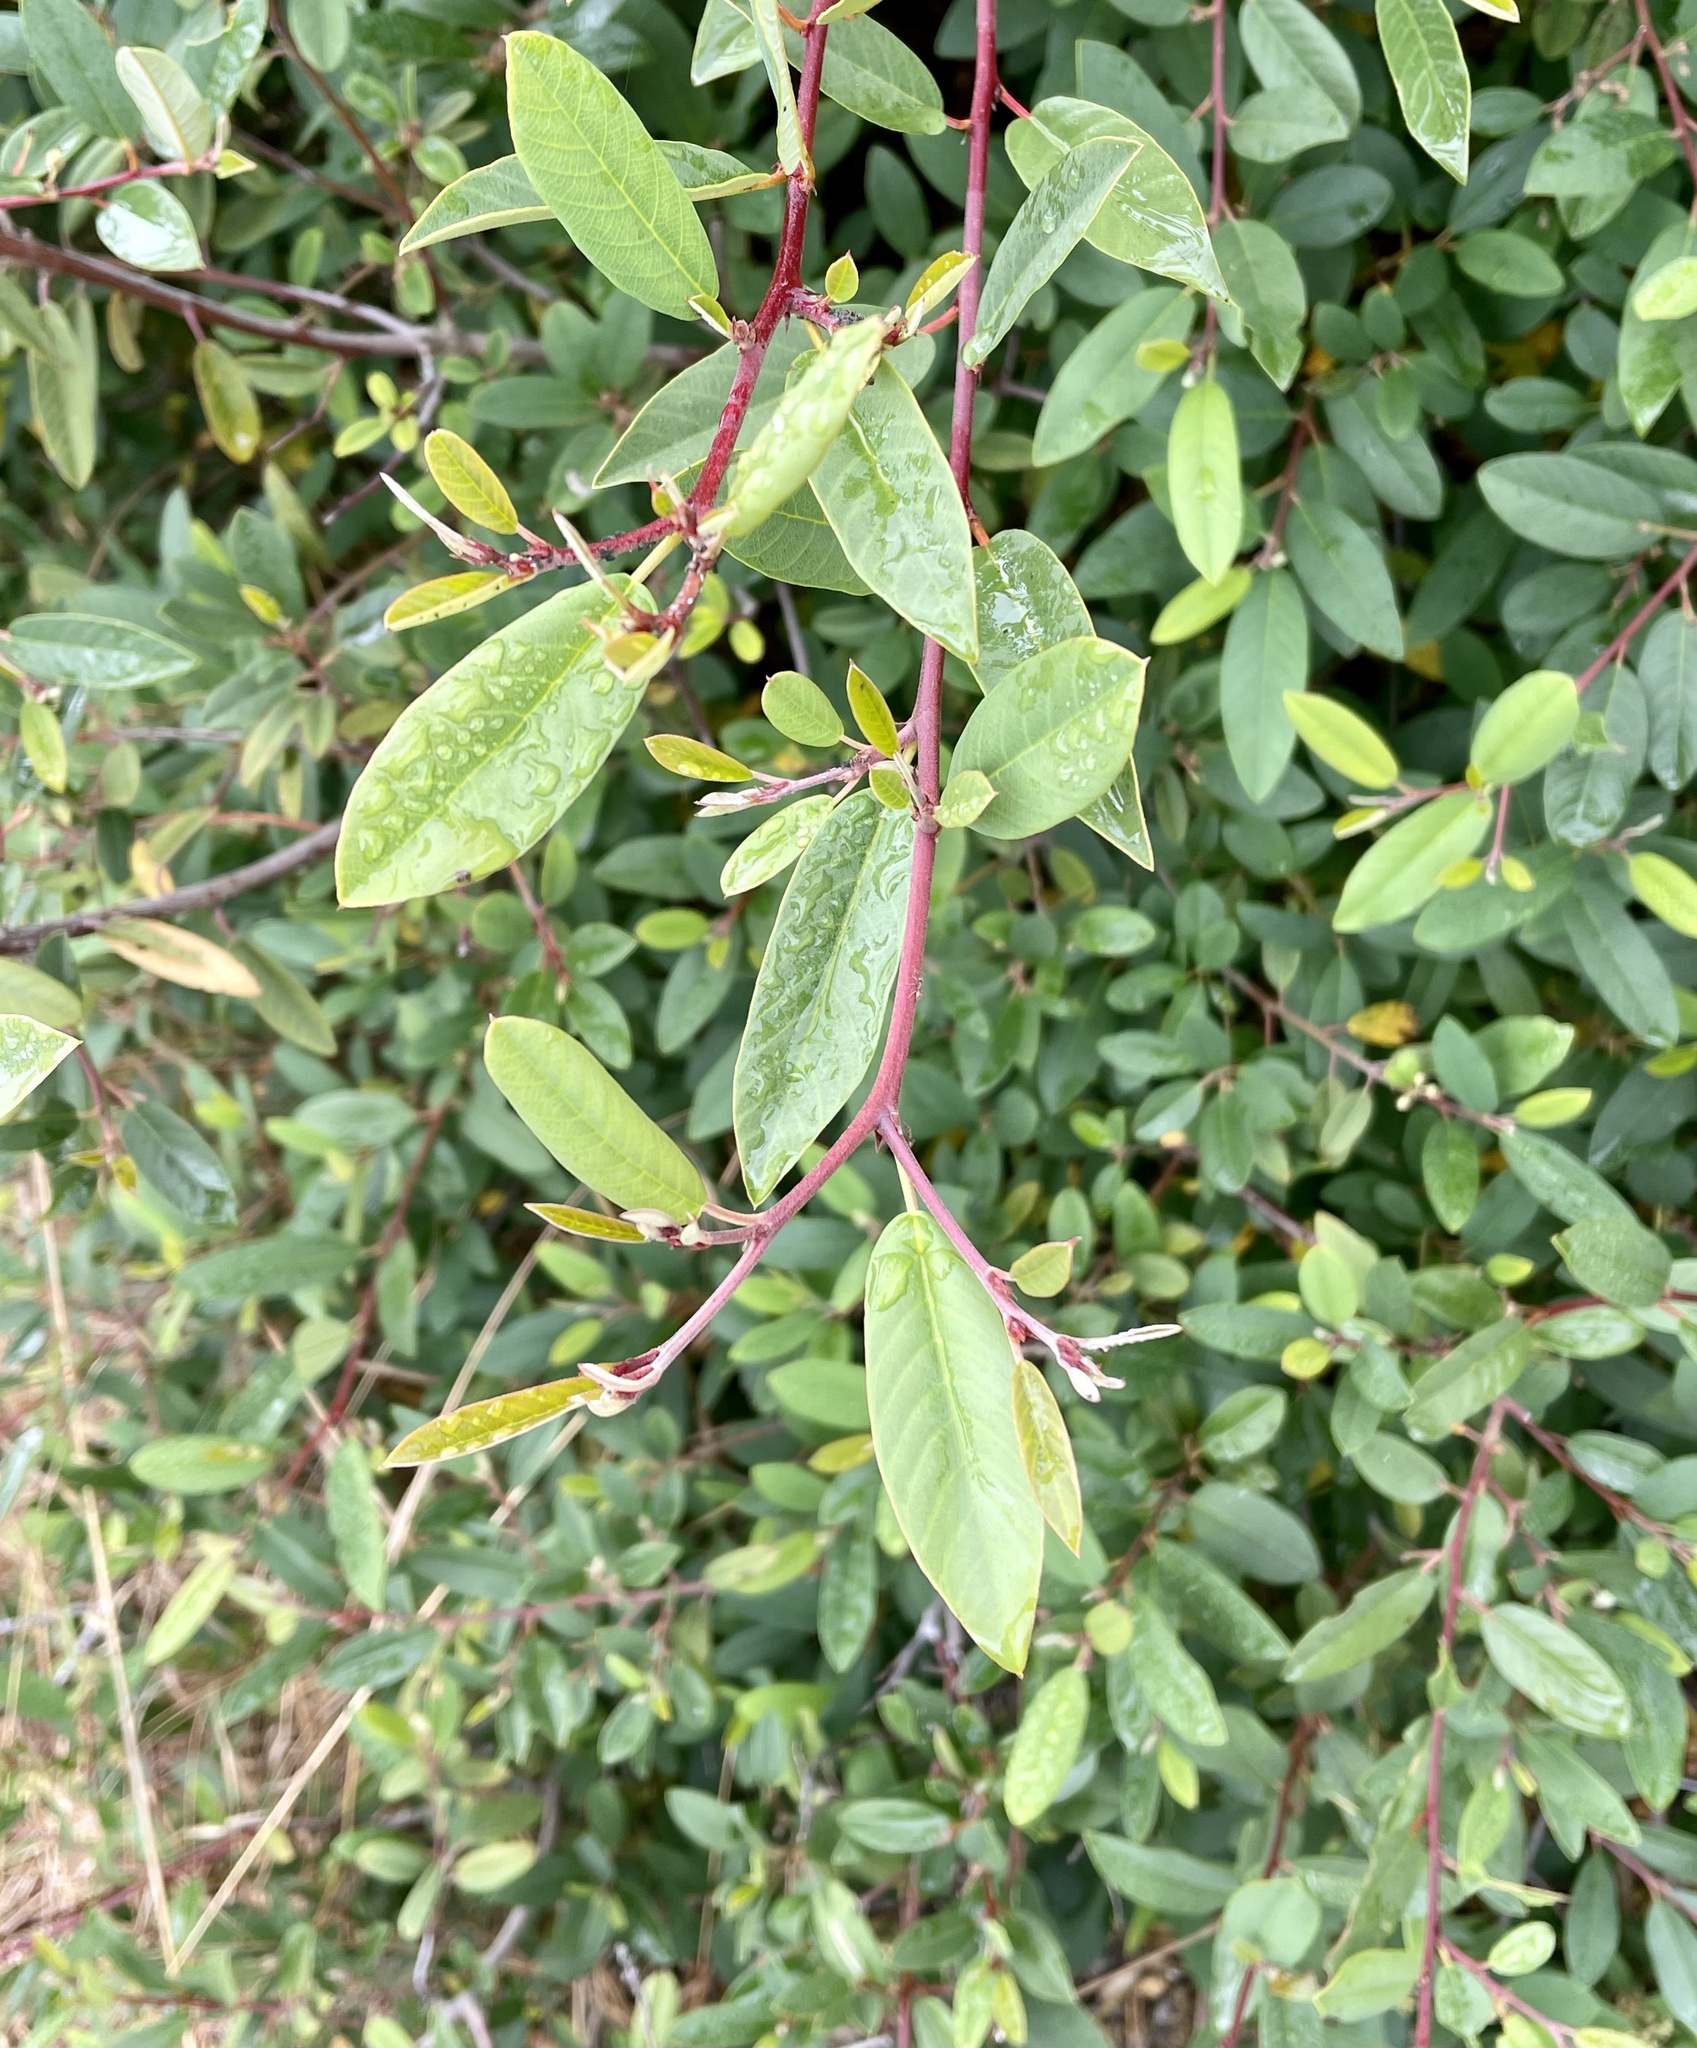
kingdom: Plantae
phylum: Tracheophyta
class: Magnoliopsida
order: Rosales
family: Rhamnaceae
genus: Frangula
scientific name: Frangula californica
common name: California buckthorn
